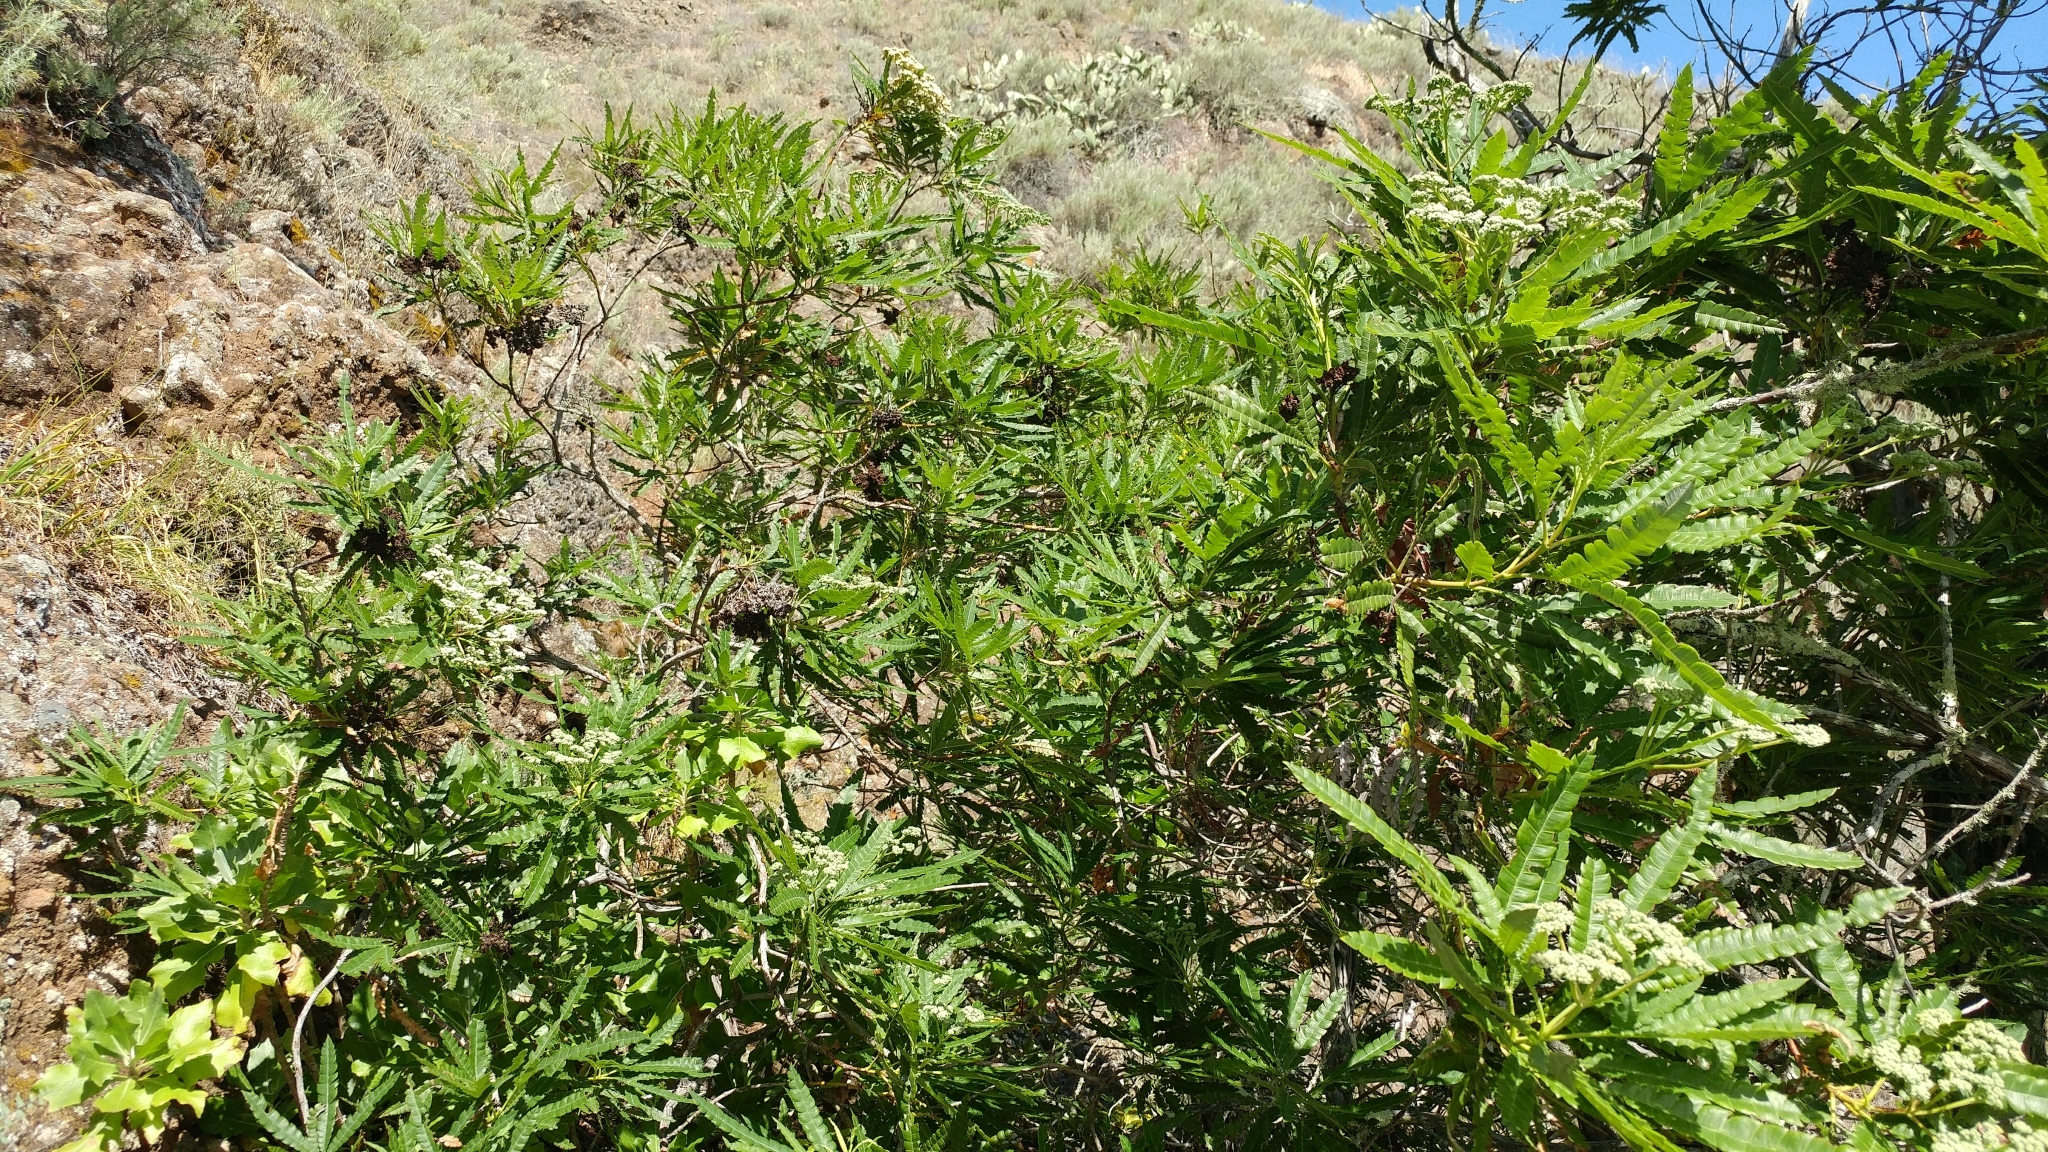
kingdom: Plantae
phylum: Tracheophyta
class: Magnoliopsida
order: Rosales
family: Rosaceae
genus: Lyonothamnus
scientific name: Lyonothamnus floribundus
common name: Catalina ironwood
